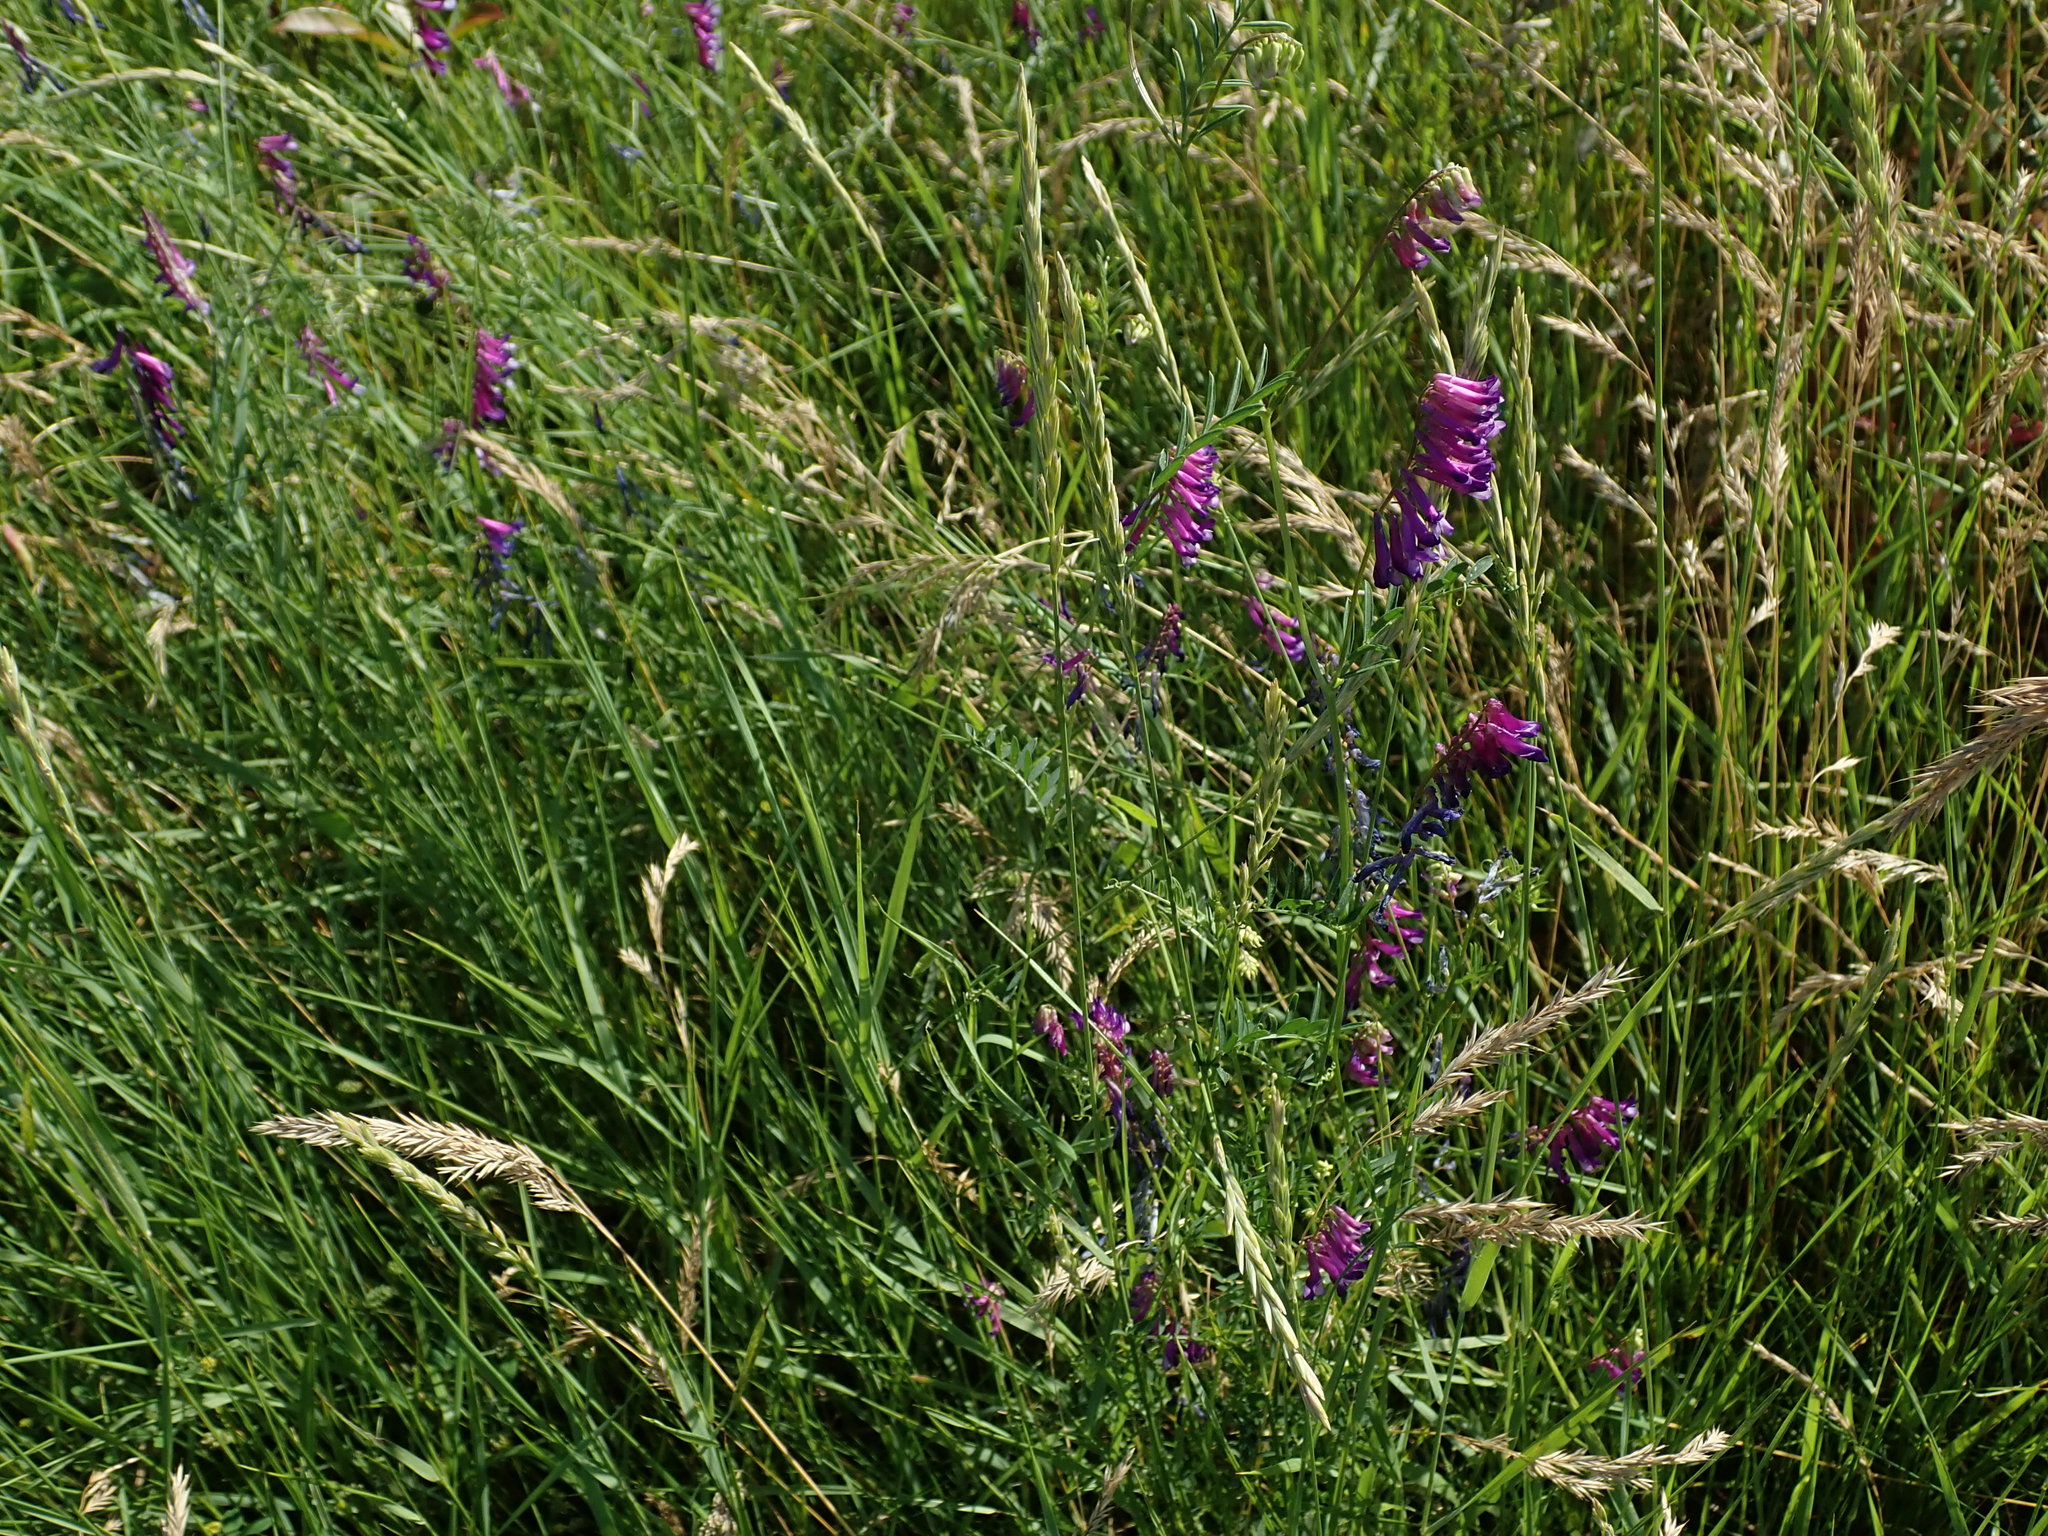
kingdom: Plantae
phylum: Tracheophyta
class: Magnoliopsida
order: Fabales
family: Fabaceae
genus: Vicia
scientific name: Vicia villosa
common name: Fodder vetch
